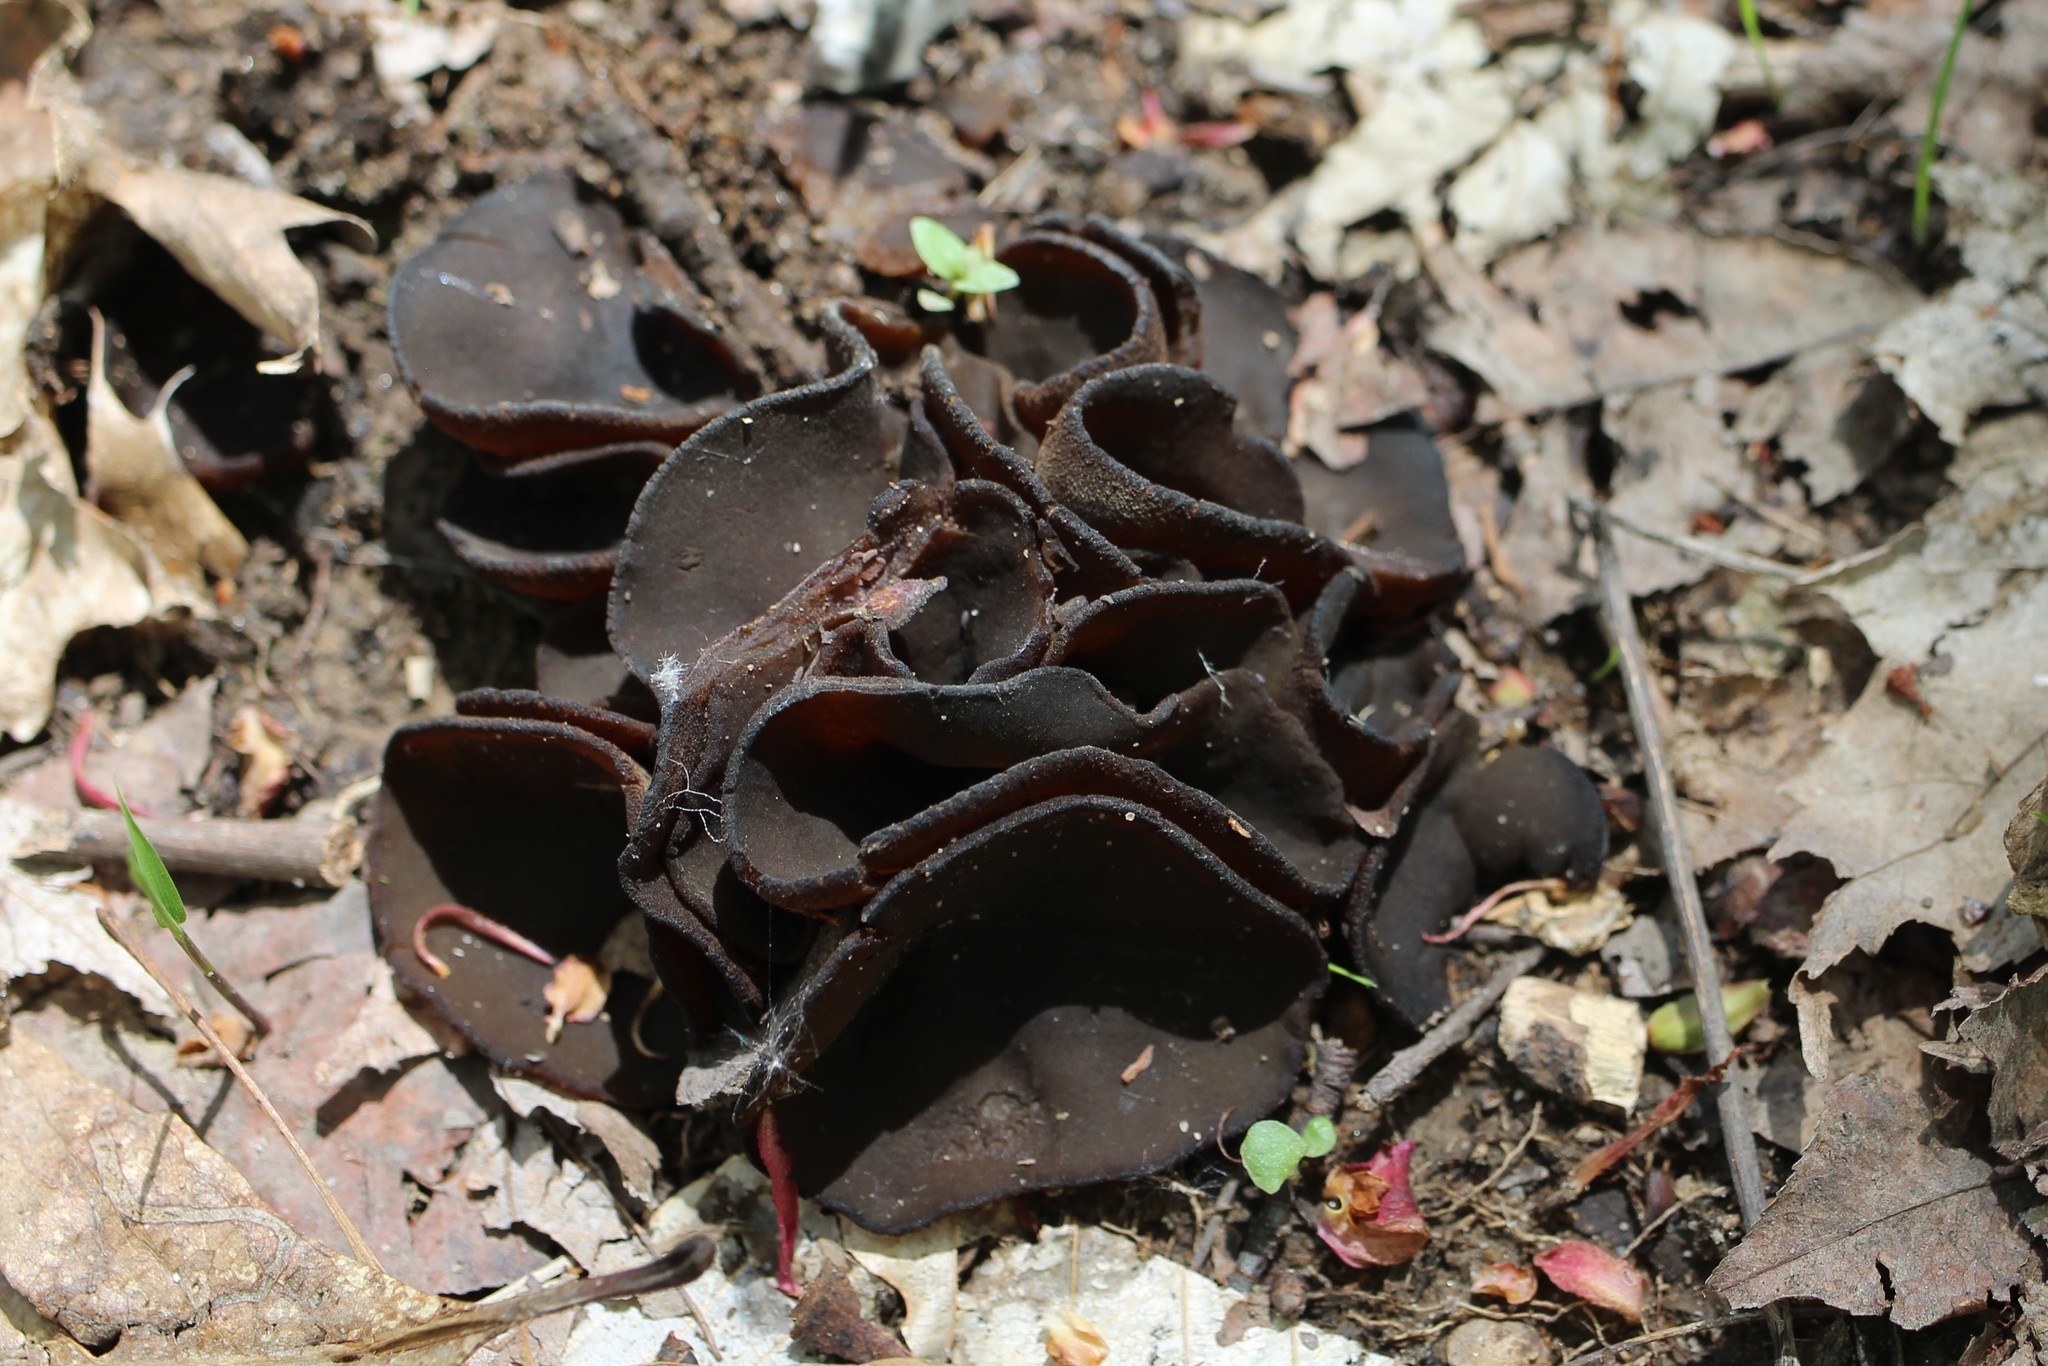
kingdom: Fungi
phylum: Ascomycota
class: Pezizomycetes
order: Pezizales
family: Sarcosomataceae
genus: Pseudoplectania
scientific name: Pseudoplectania nigrella
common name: Ebony cup
